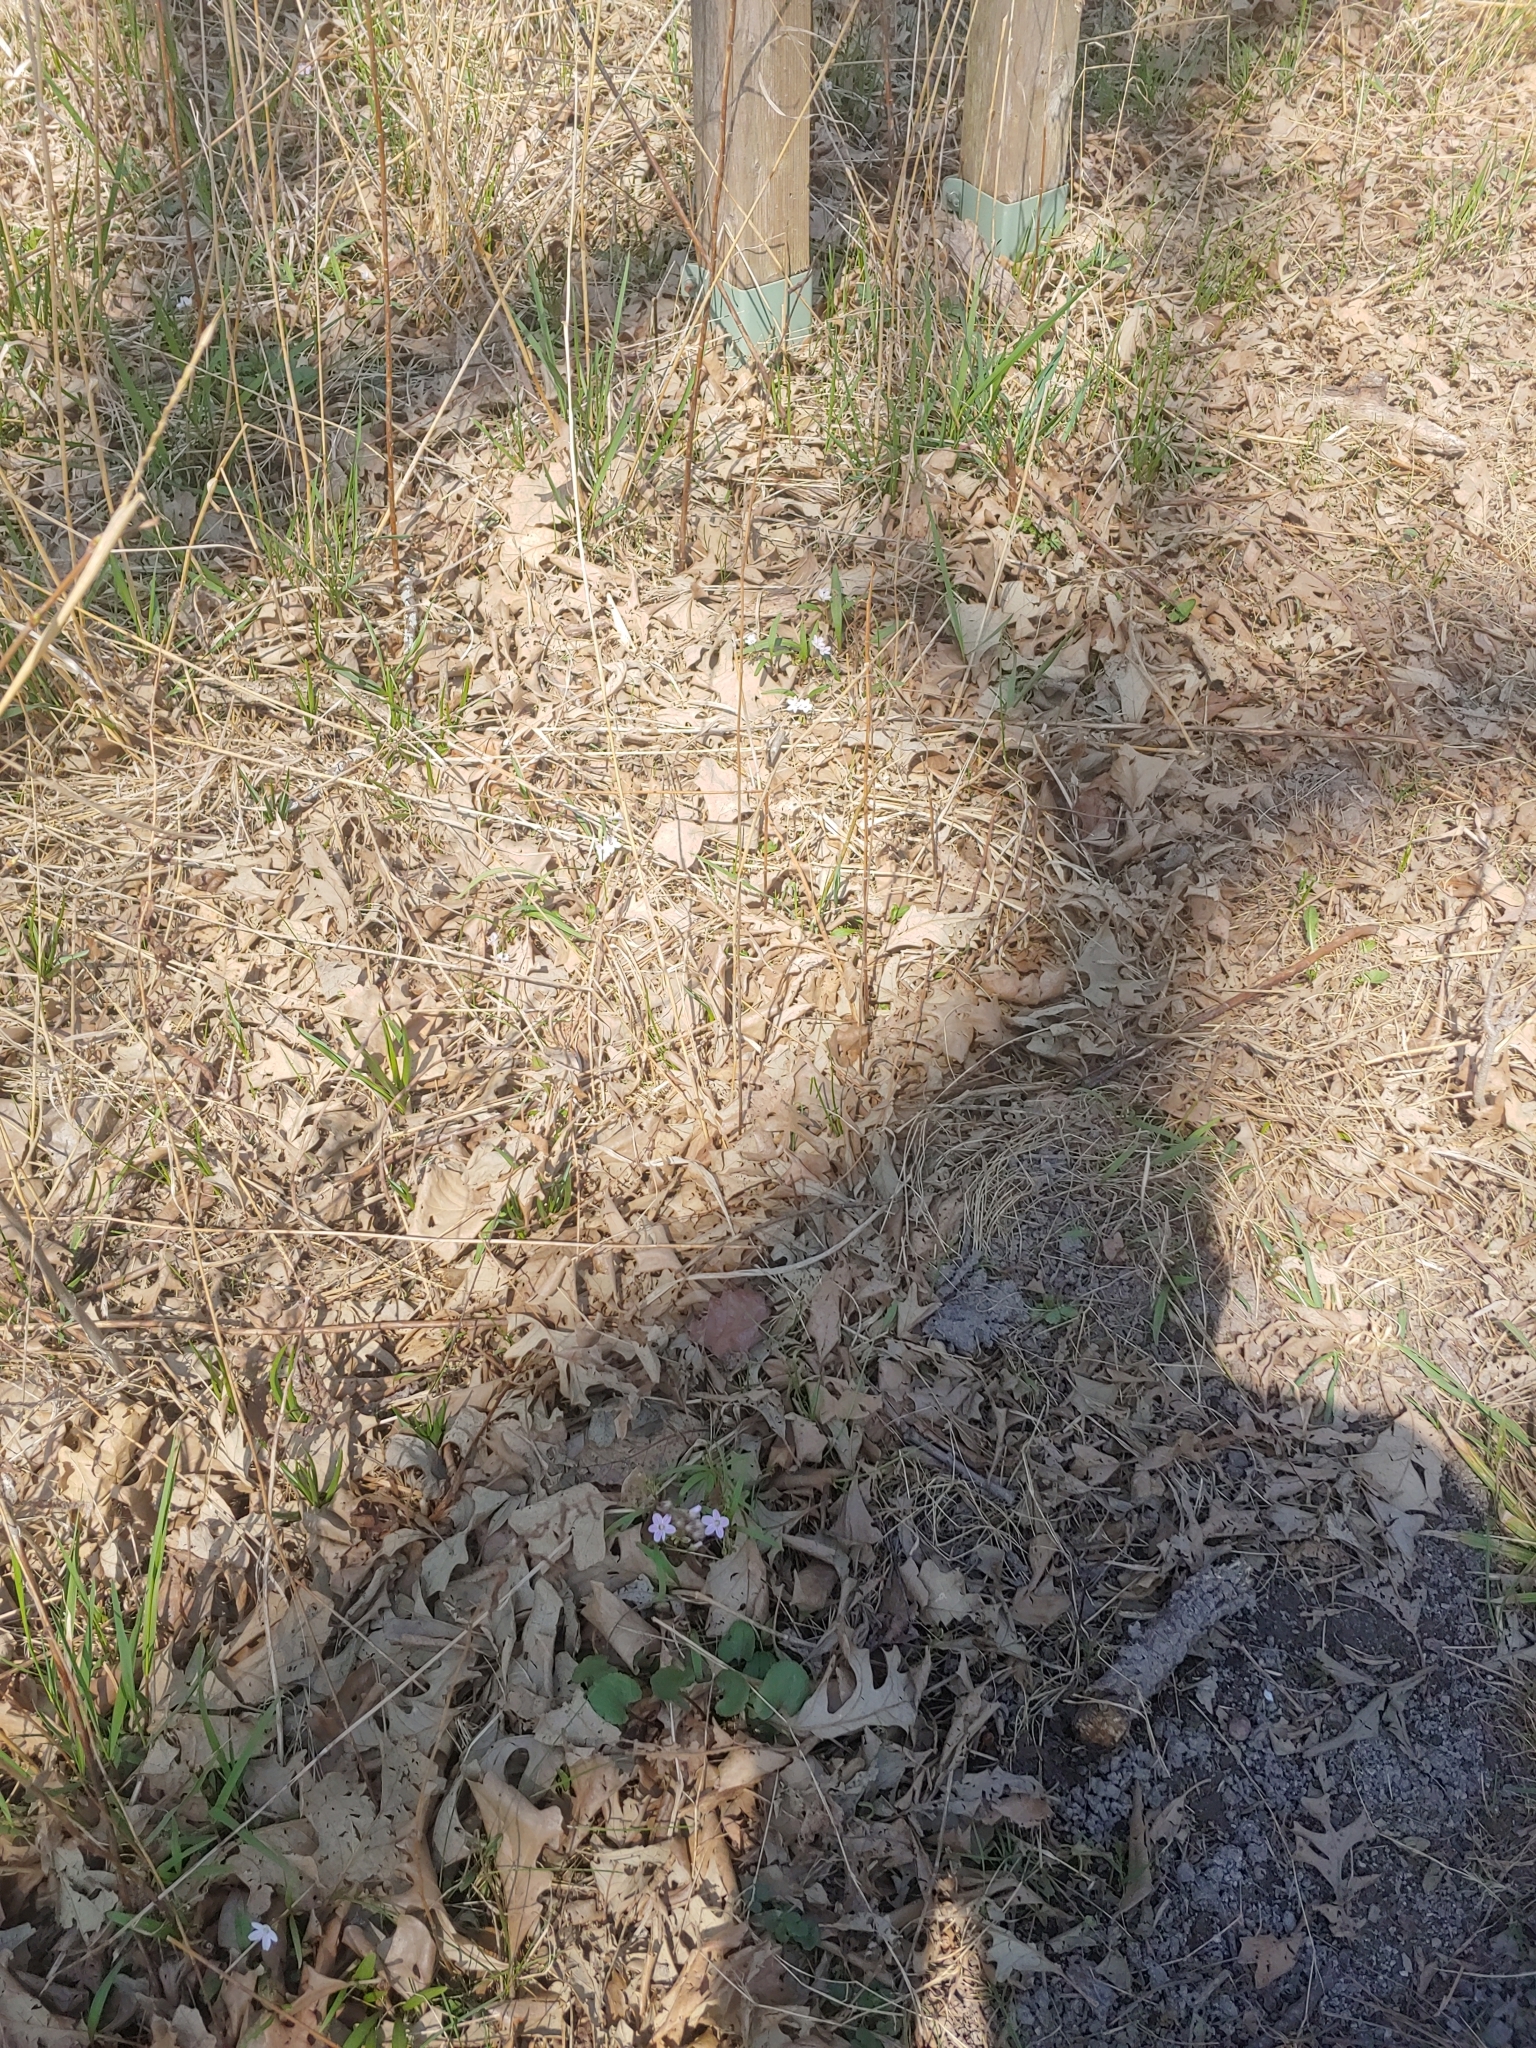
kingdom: Plantae
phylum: Tracheophyta
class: Magnoliopsida
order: Caryophyllales
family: Montiaceae
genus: Claytonia
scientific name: Claytonia virginica
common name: Virginia springbeauty
